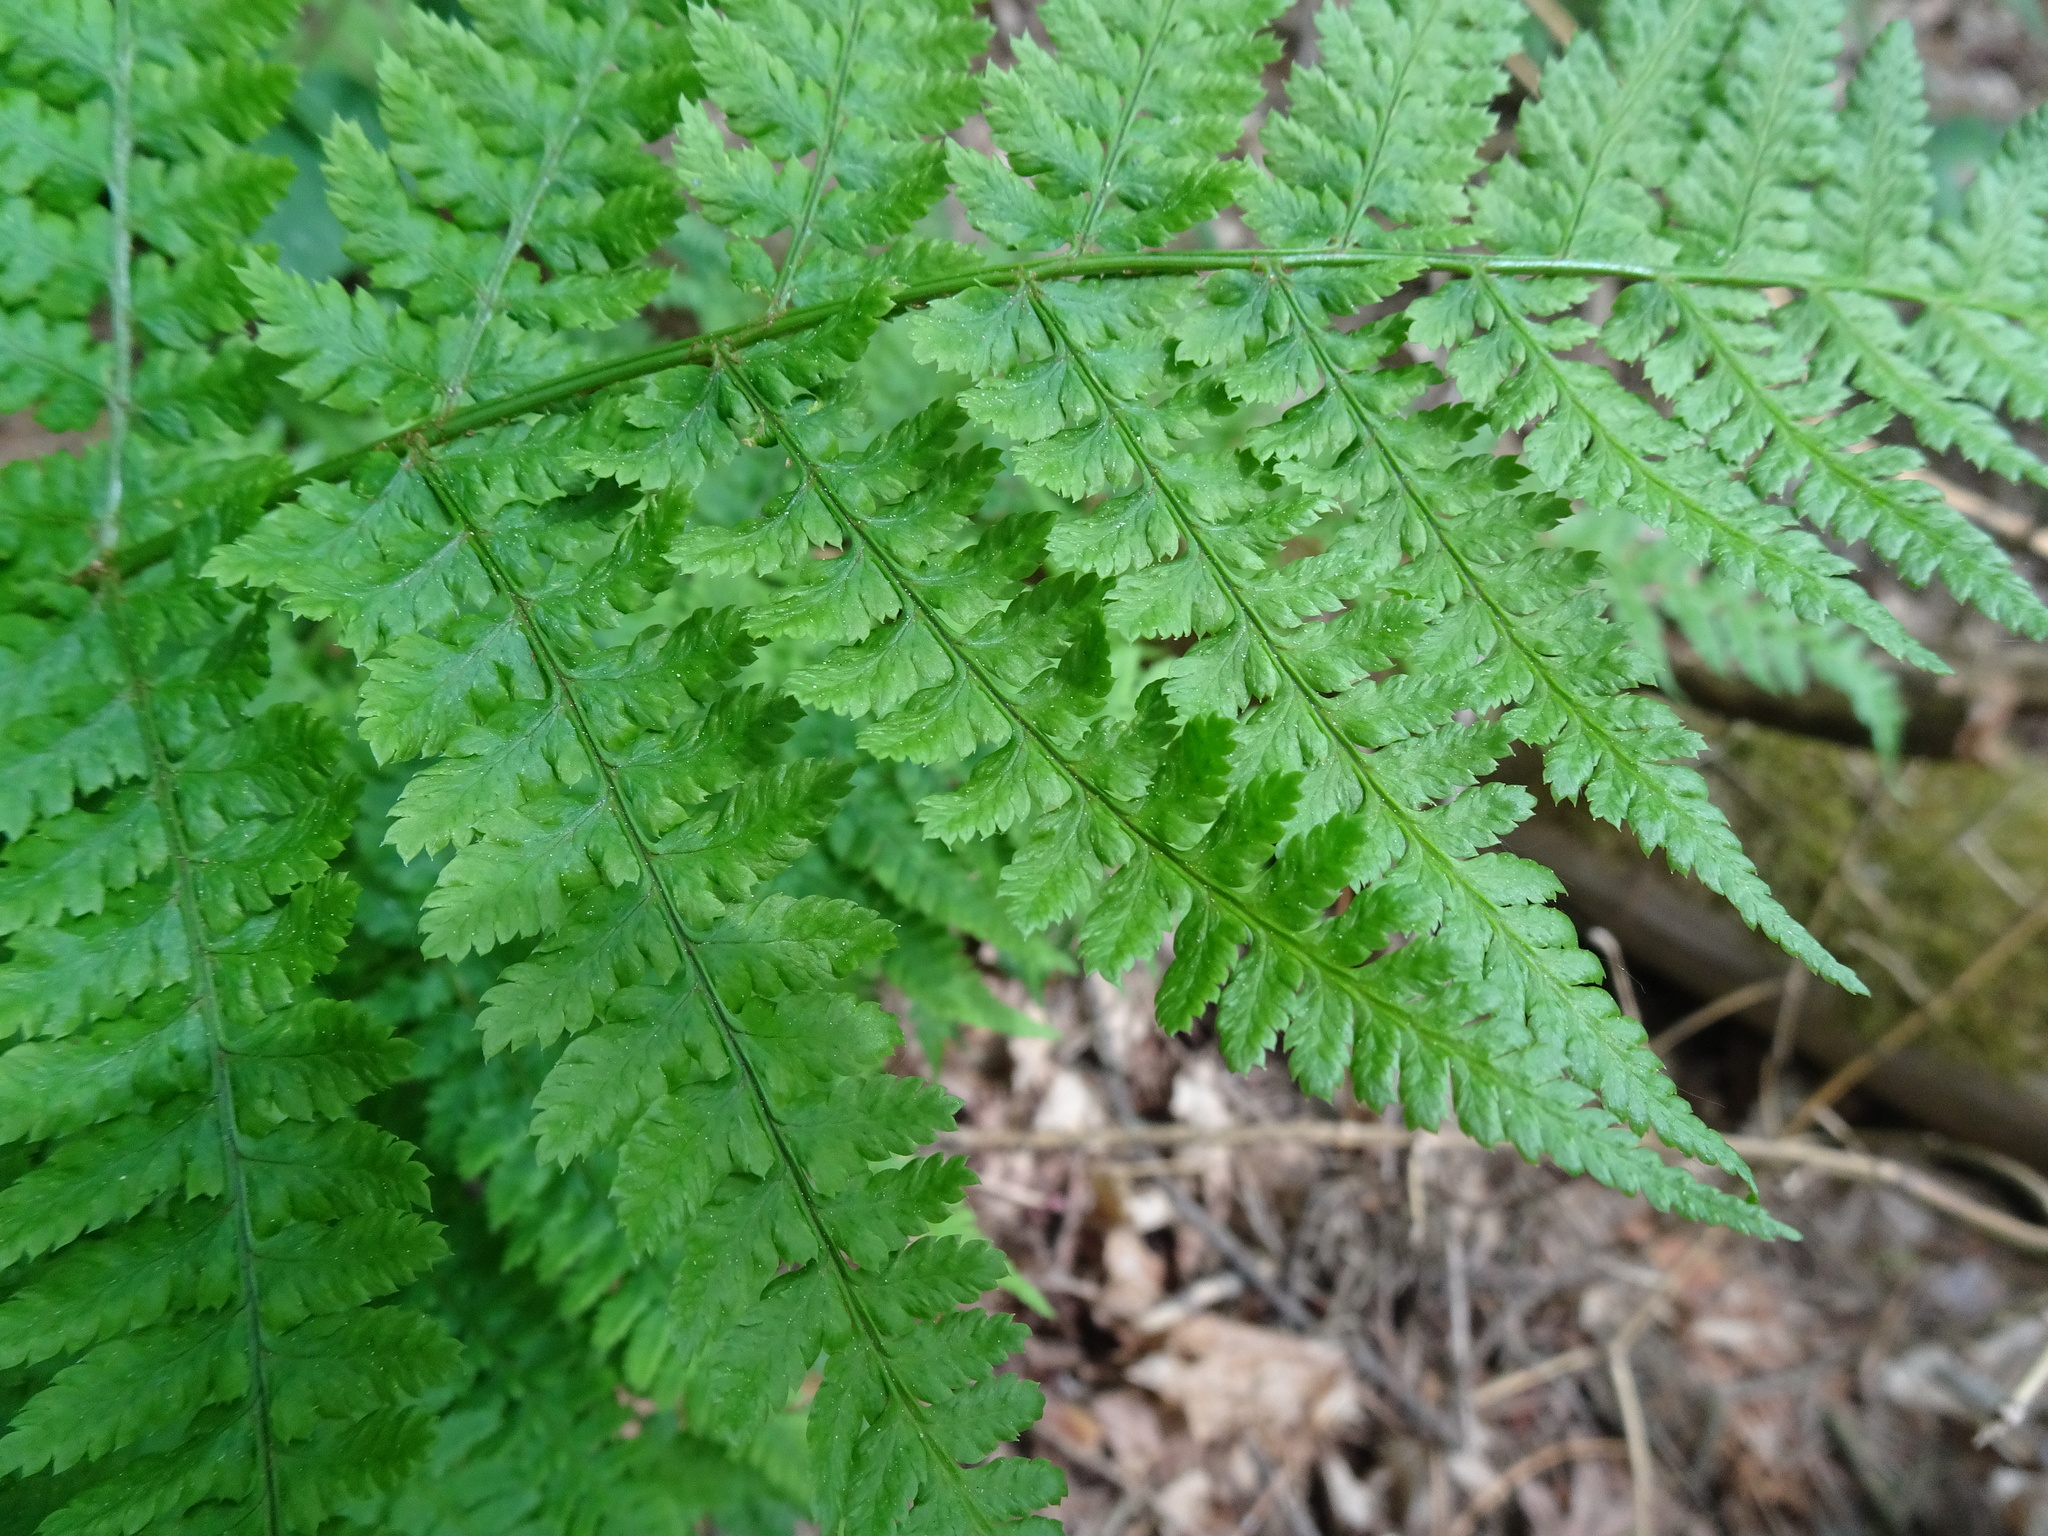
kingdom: Plantae
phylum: Tracheophyta
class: Polypodiopsida
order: Polypodiales
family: Dryopteridaceae
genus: Dryopteris
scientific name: Dryopteris dilatata
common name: Broad buckler-fern
